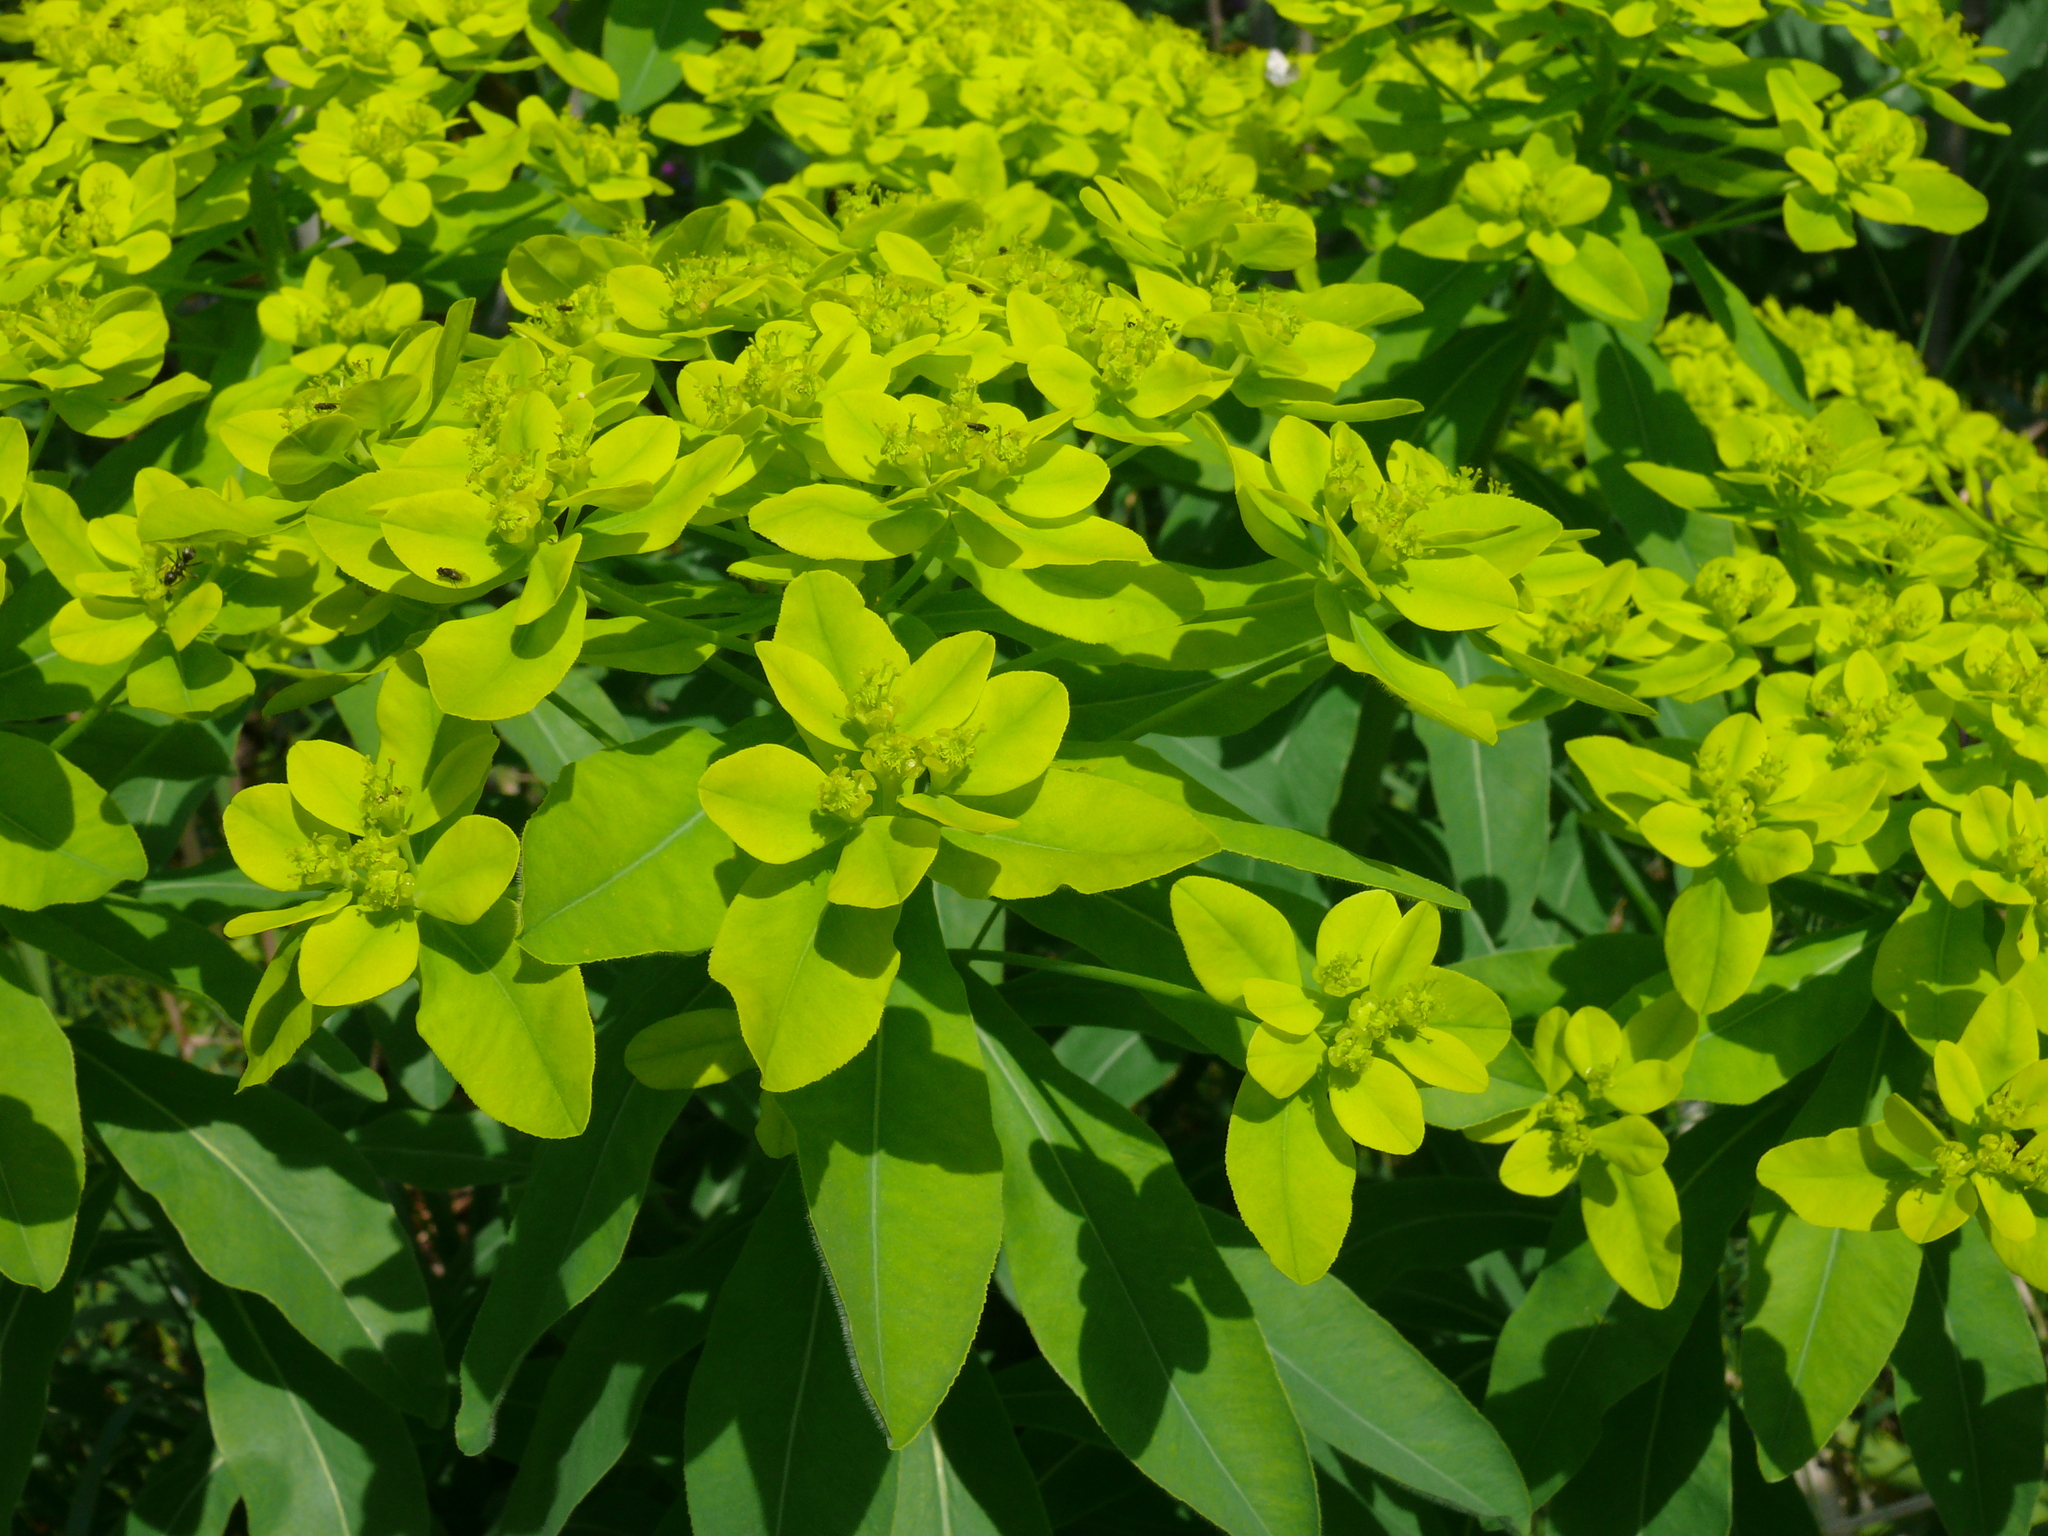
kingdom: Plantae
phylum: Tracheophyta
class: Magnoliopsida
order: Malpighiales
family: Euphorbiaceae
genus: Euphorbia
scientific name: Euphorbia pilosa
